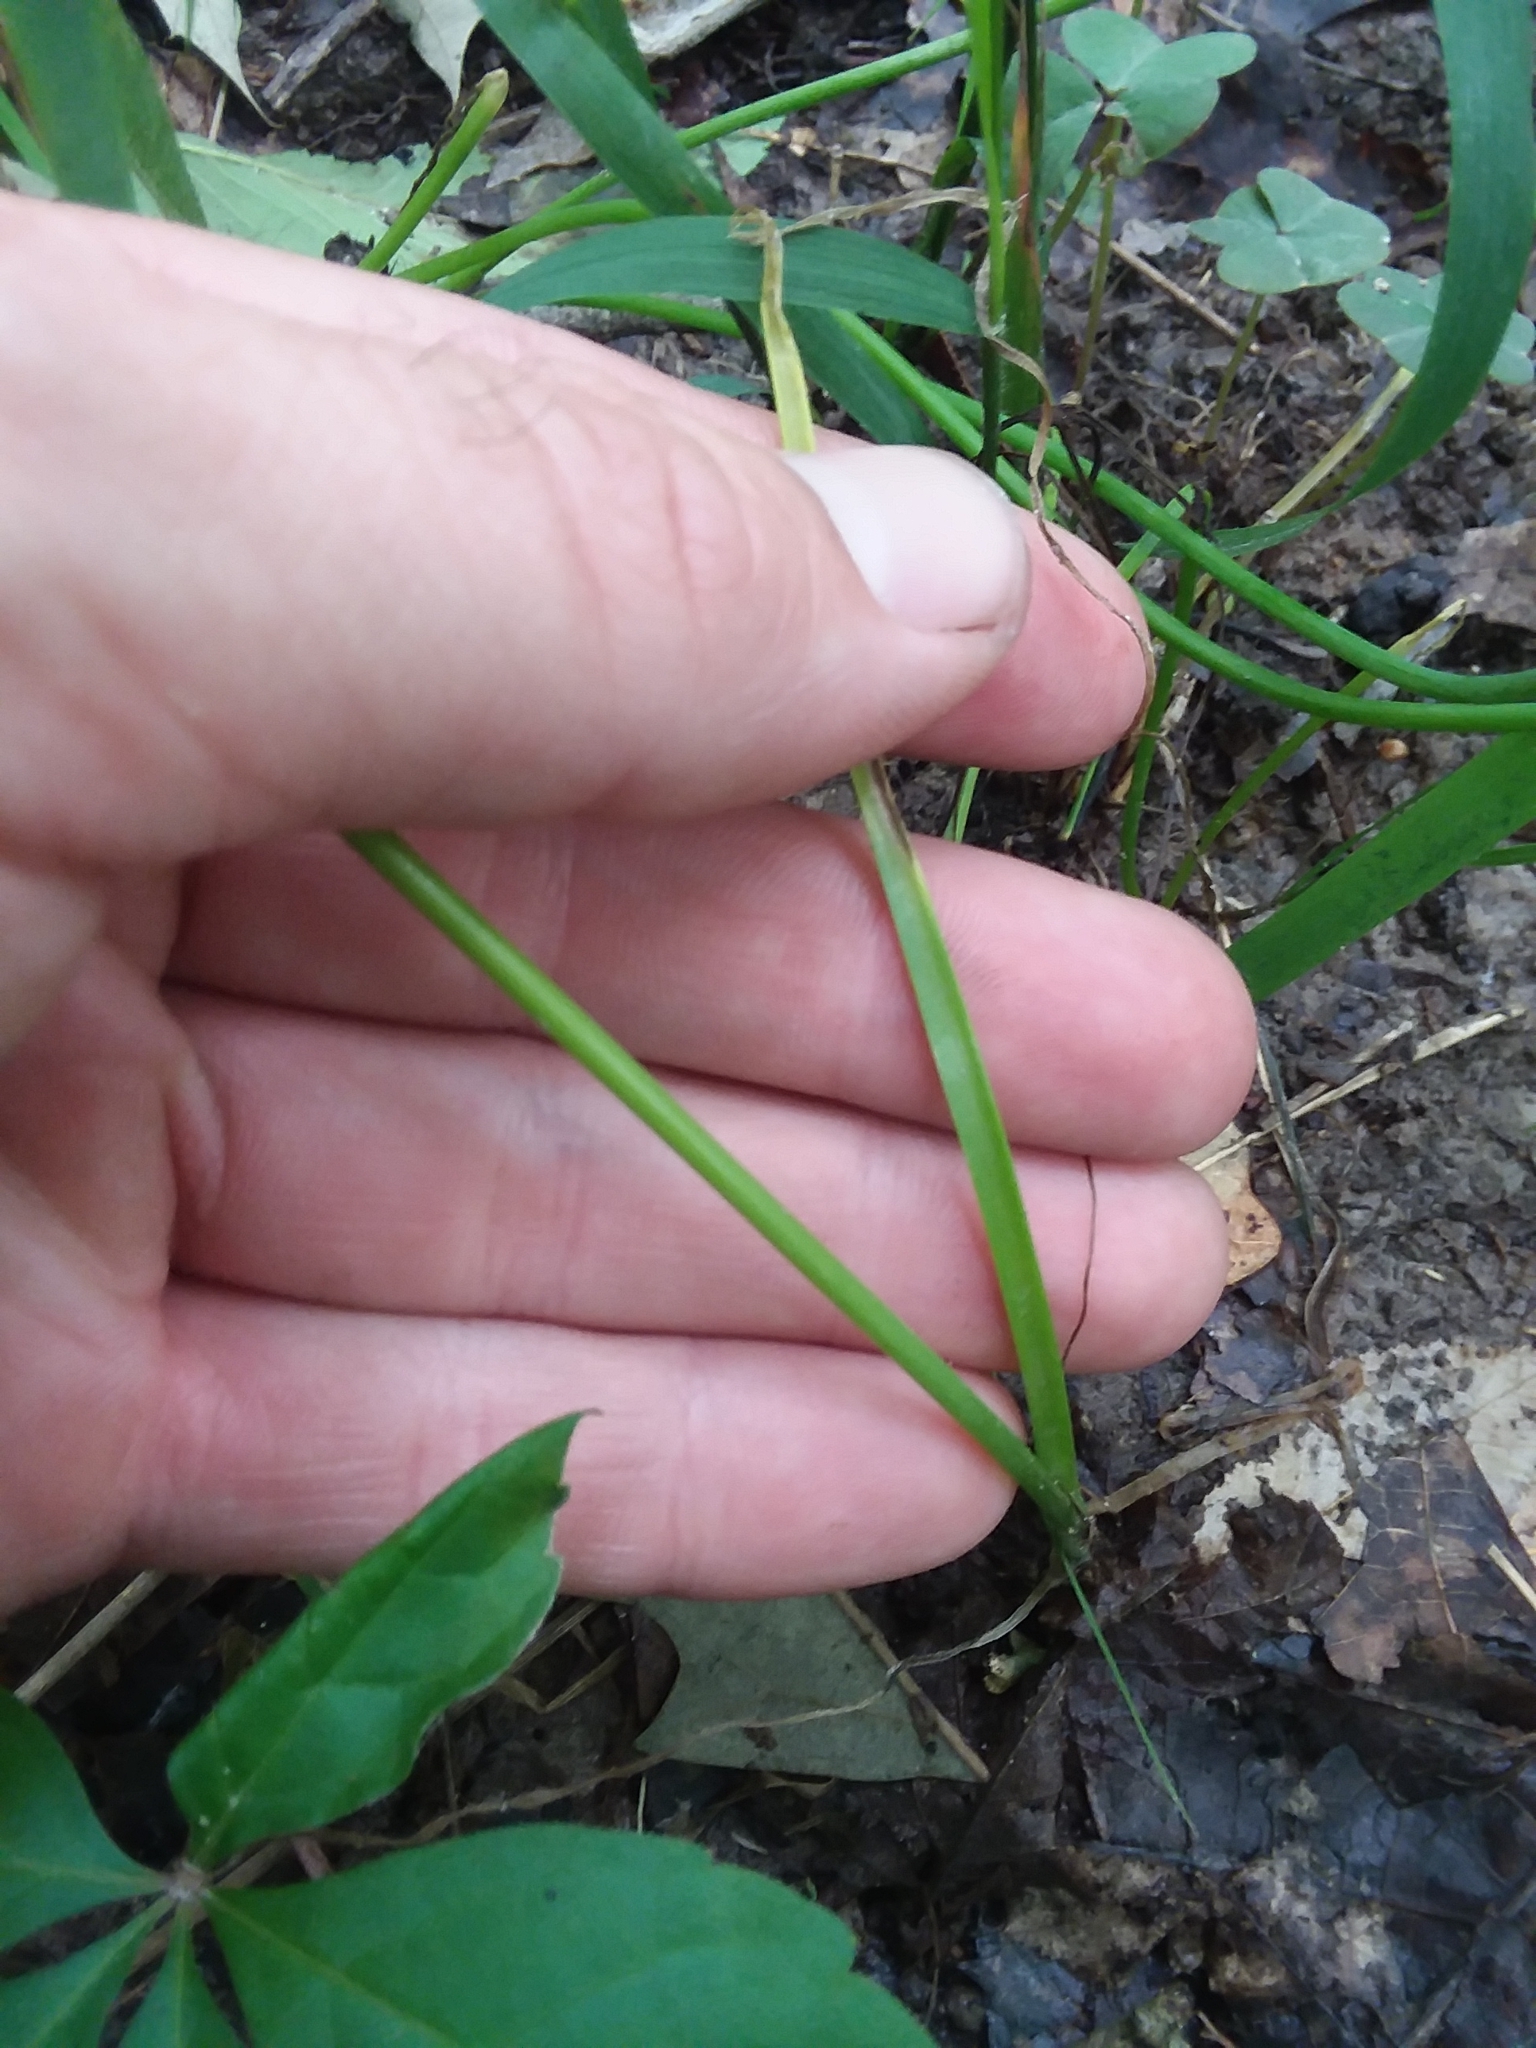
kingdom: Plantae
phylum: Tracheophyta
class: Liliopsida
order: Asparagales
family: Amaryllidaceae
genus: Allium
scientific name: Allium canadense
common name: Meadow garlic
